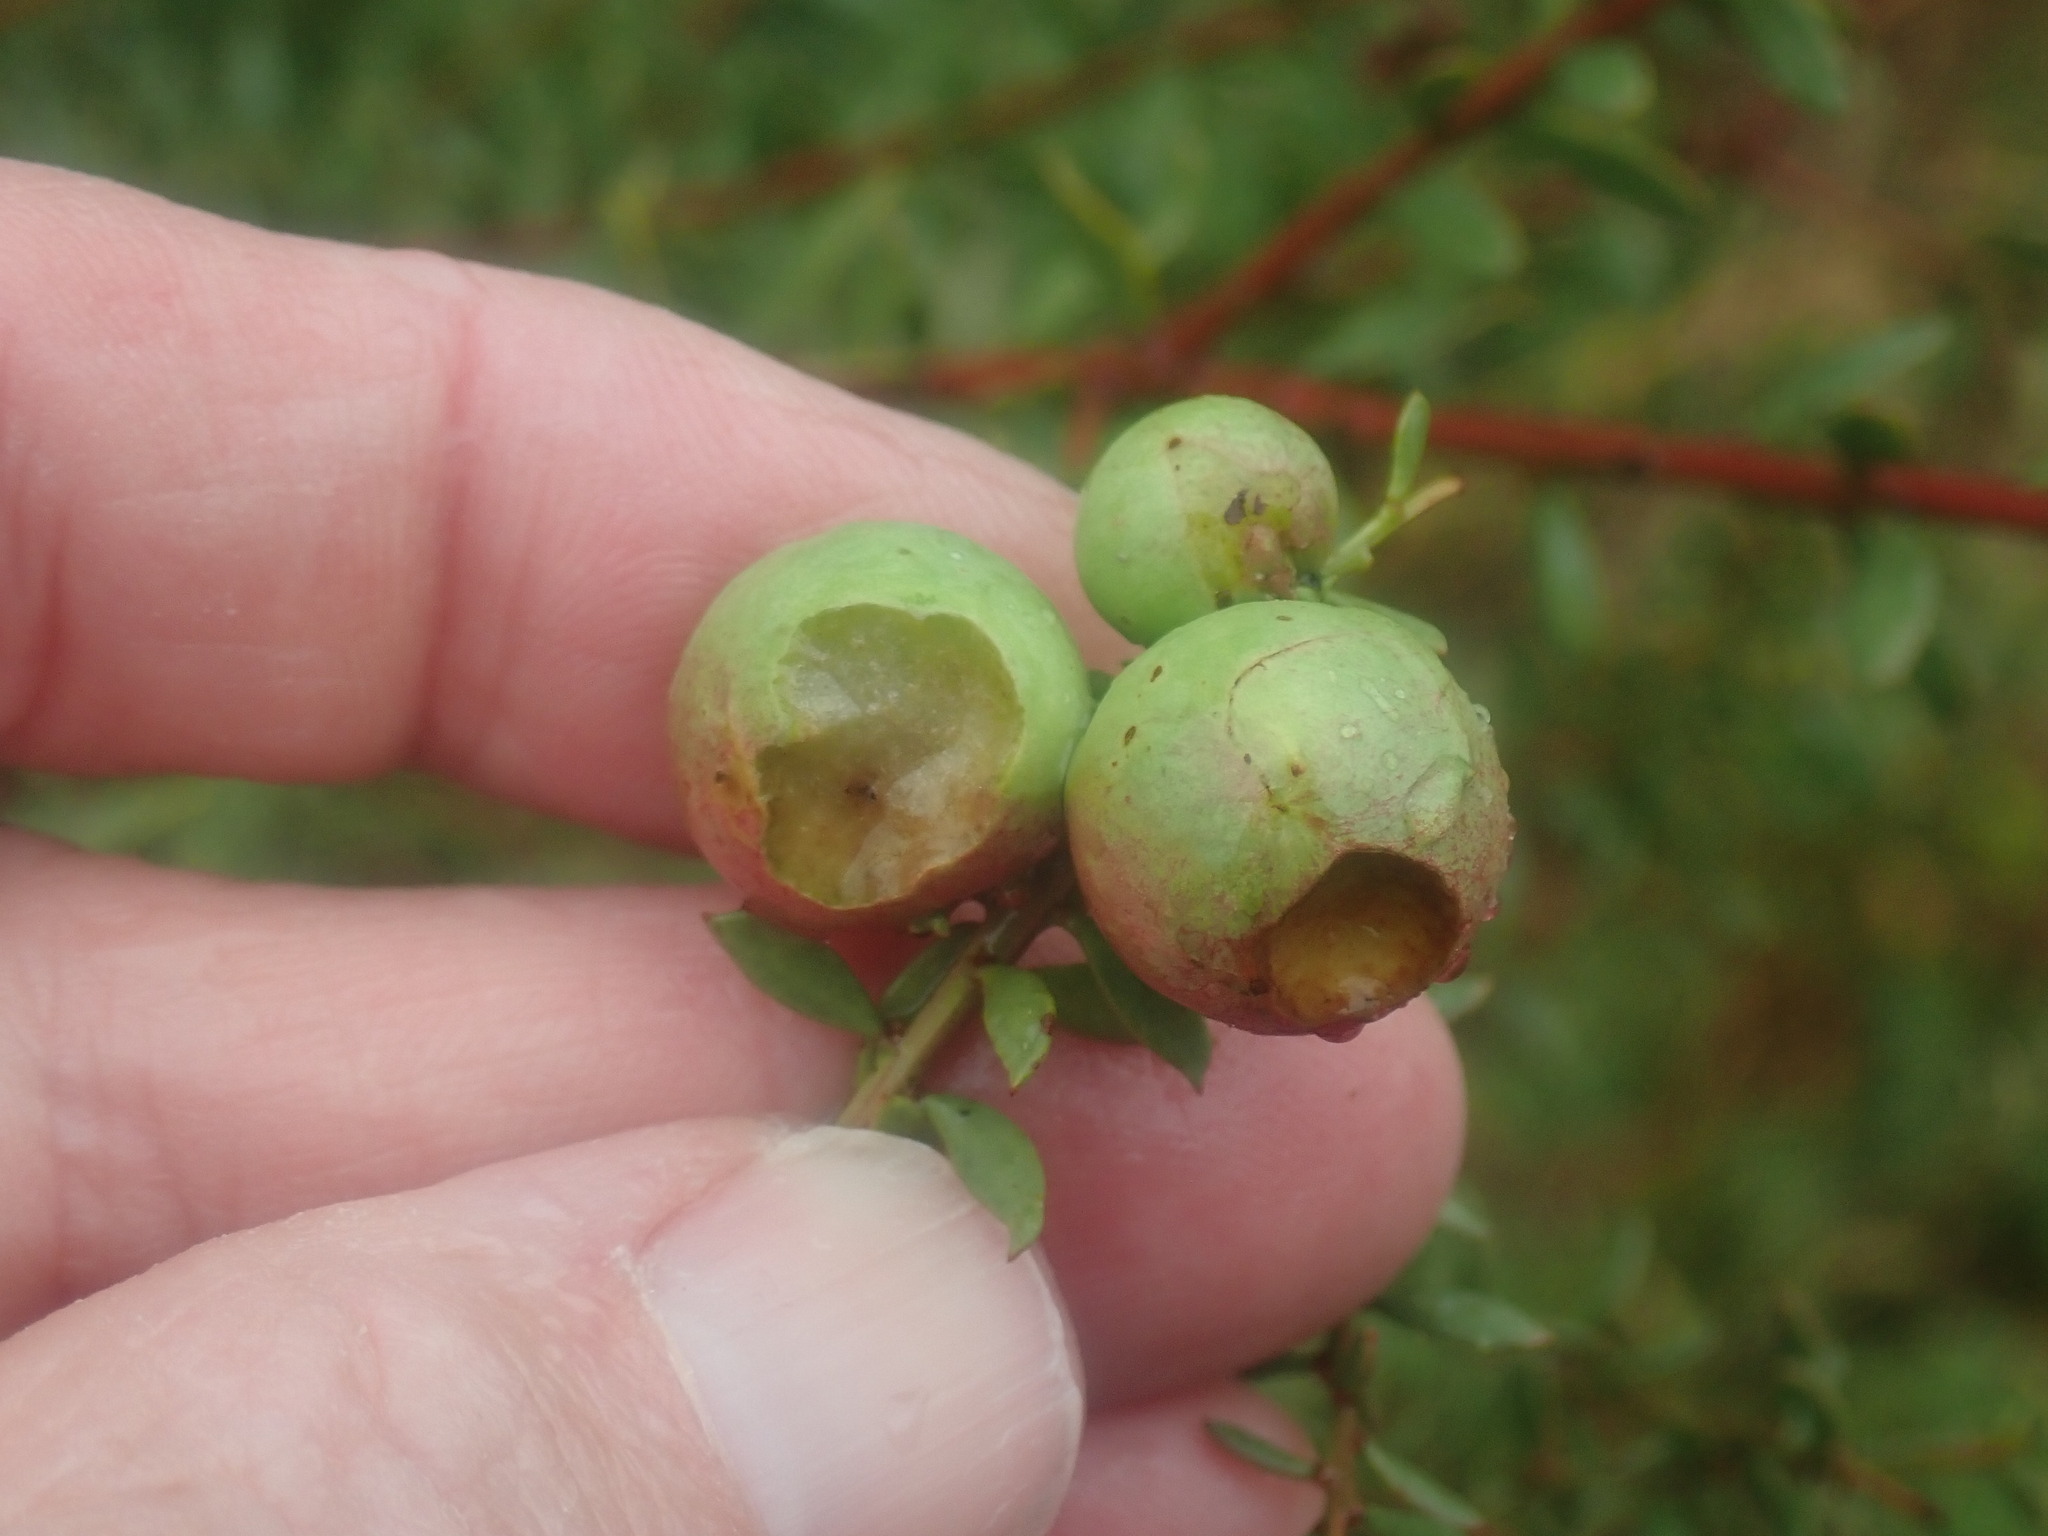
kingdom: Plantae
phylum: Tracheophyta
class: Magnoliopsida
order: Fabales
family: Fabaceae
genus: Acacia
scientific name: Acacia acinacea
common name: Gold-dust acacia
